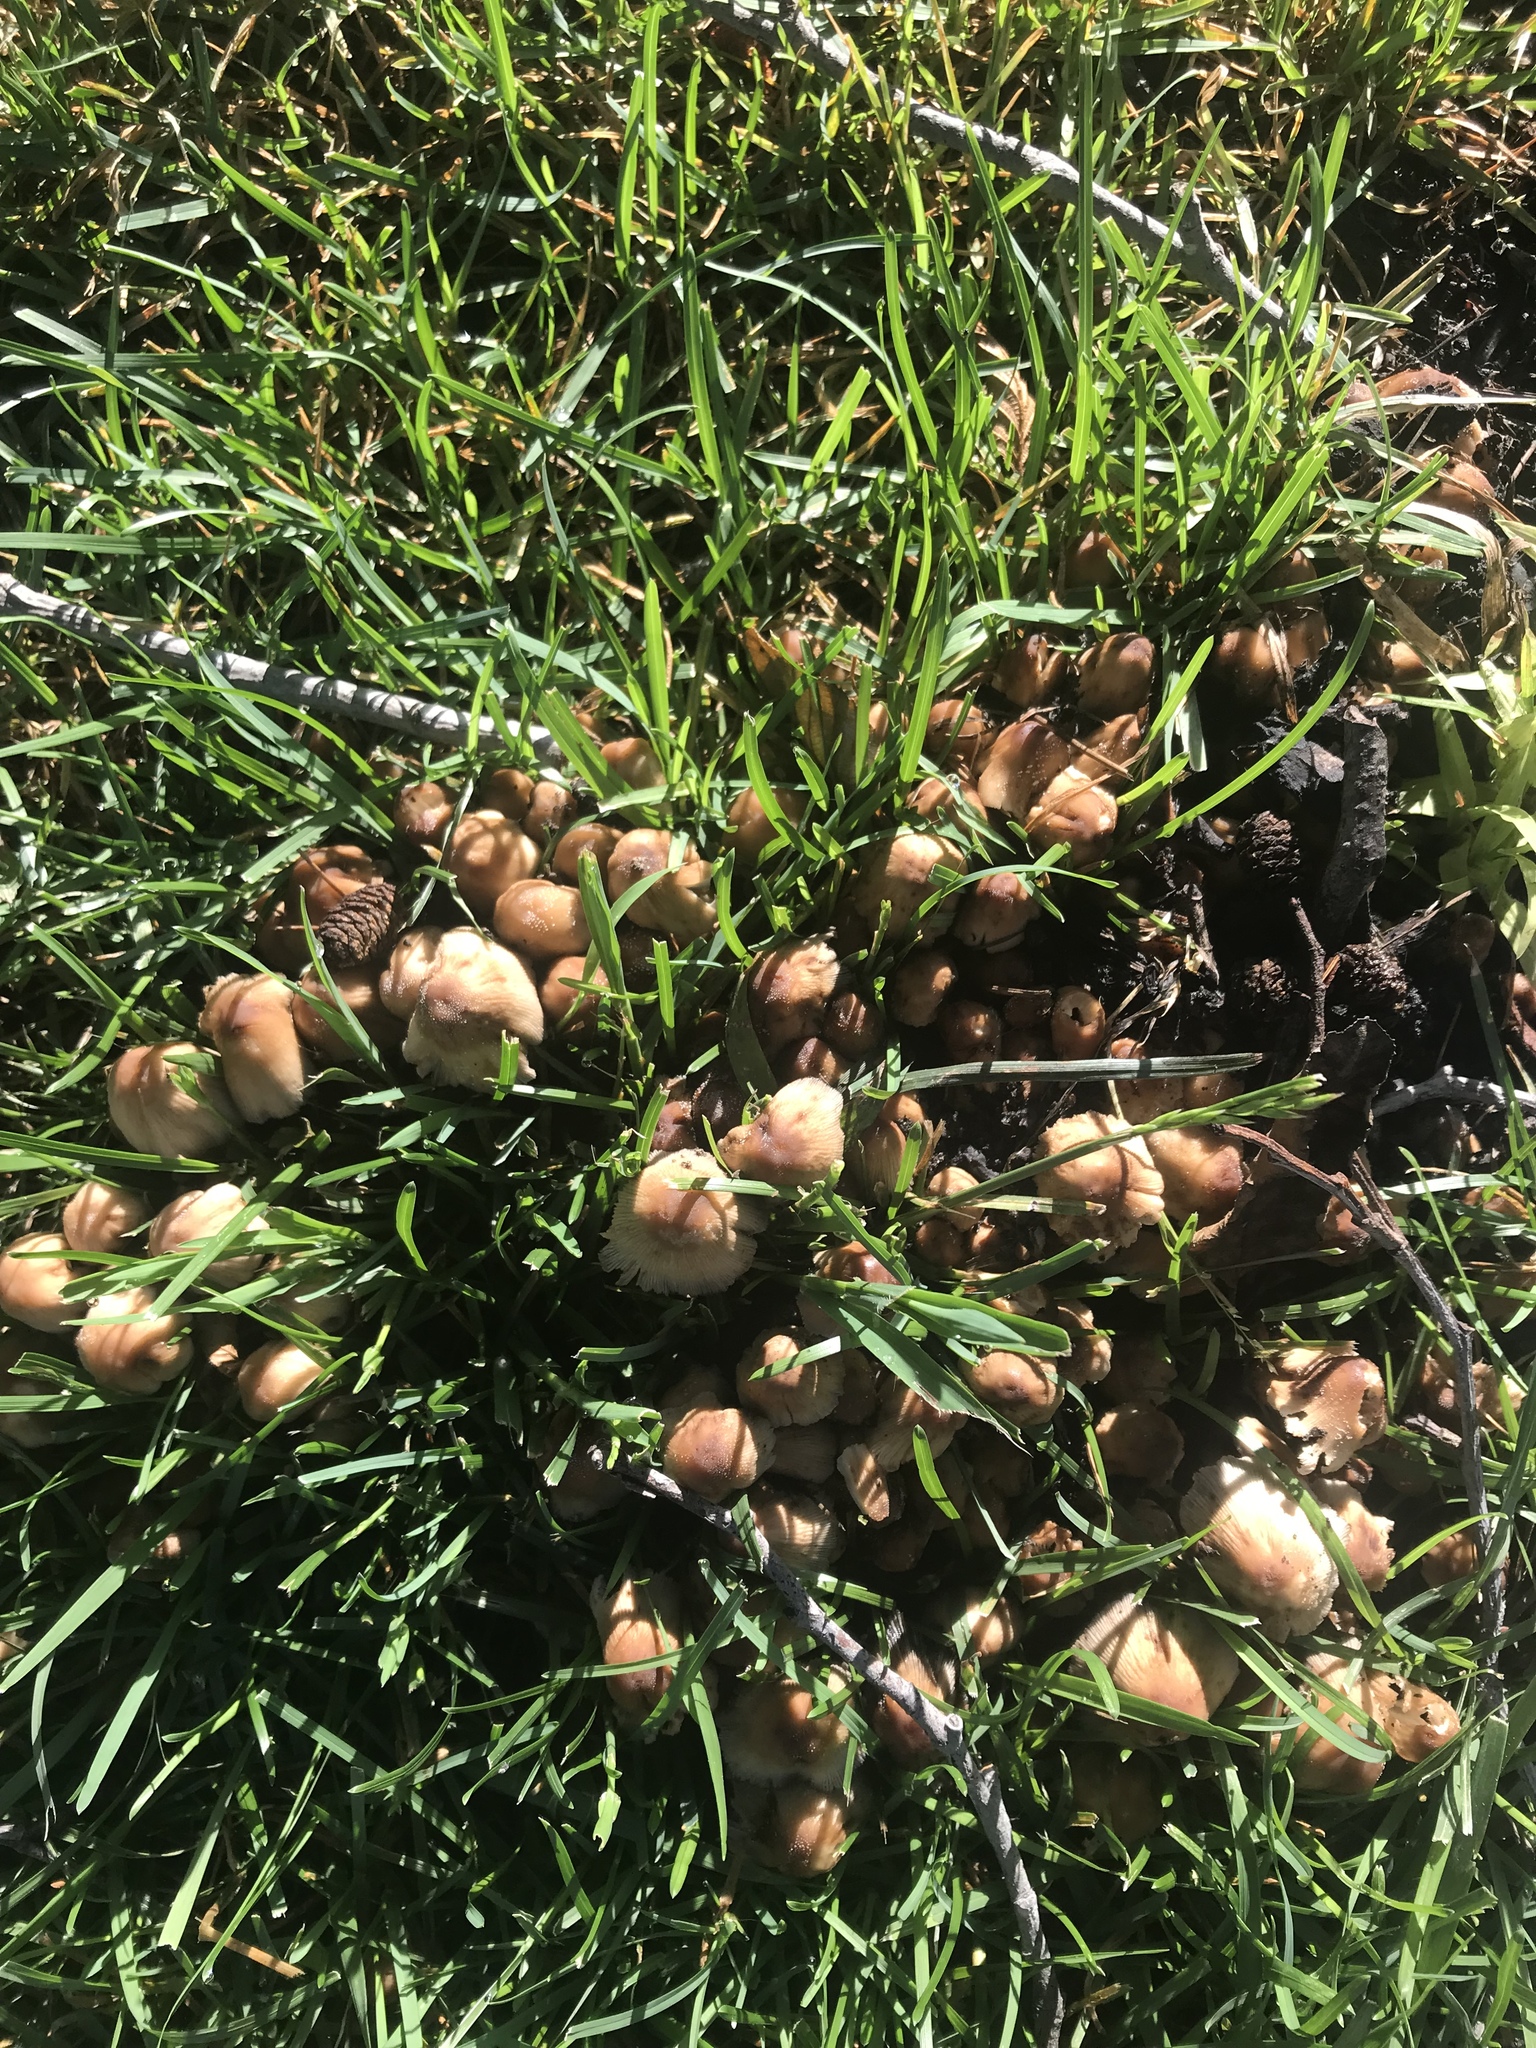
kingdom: Fungi
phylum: Basidiomycota
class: Agaricomycetes
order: Agaricales
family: Psathyrellaceae
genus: Coprinellus
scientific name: Coprinellus micaceus
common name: Glistening ink-cap
